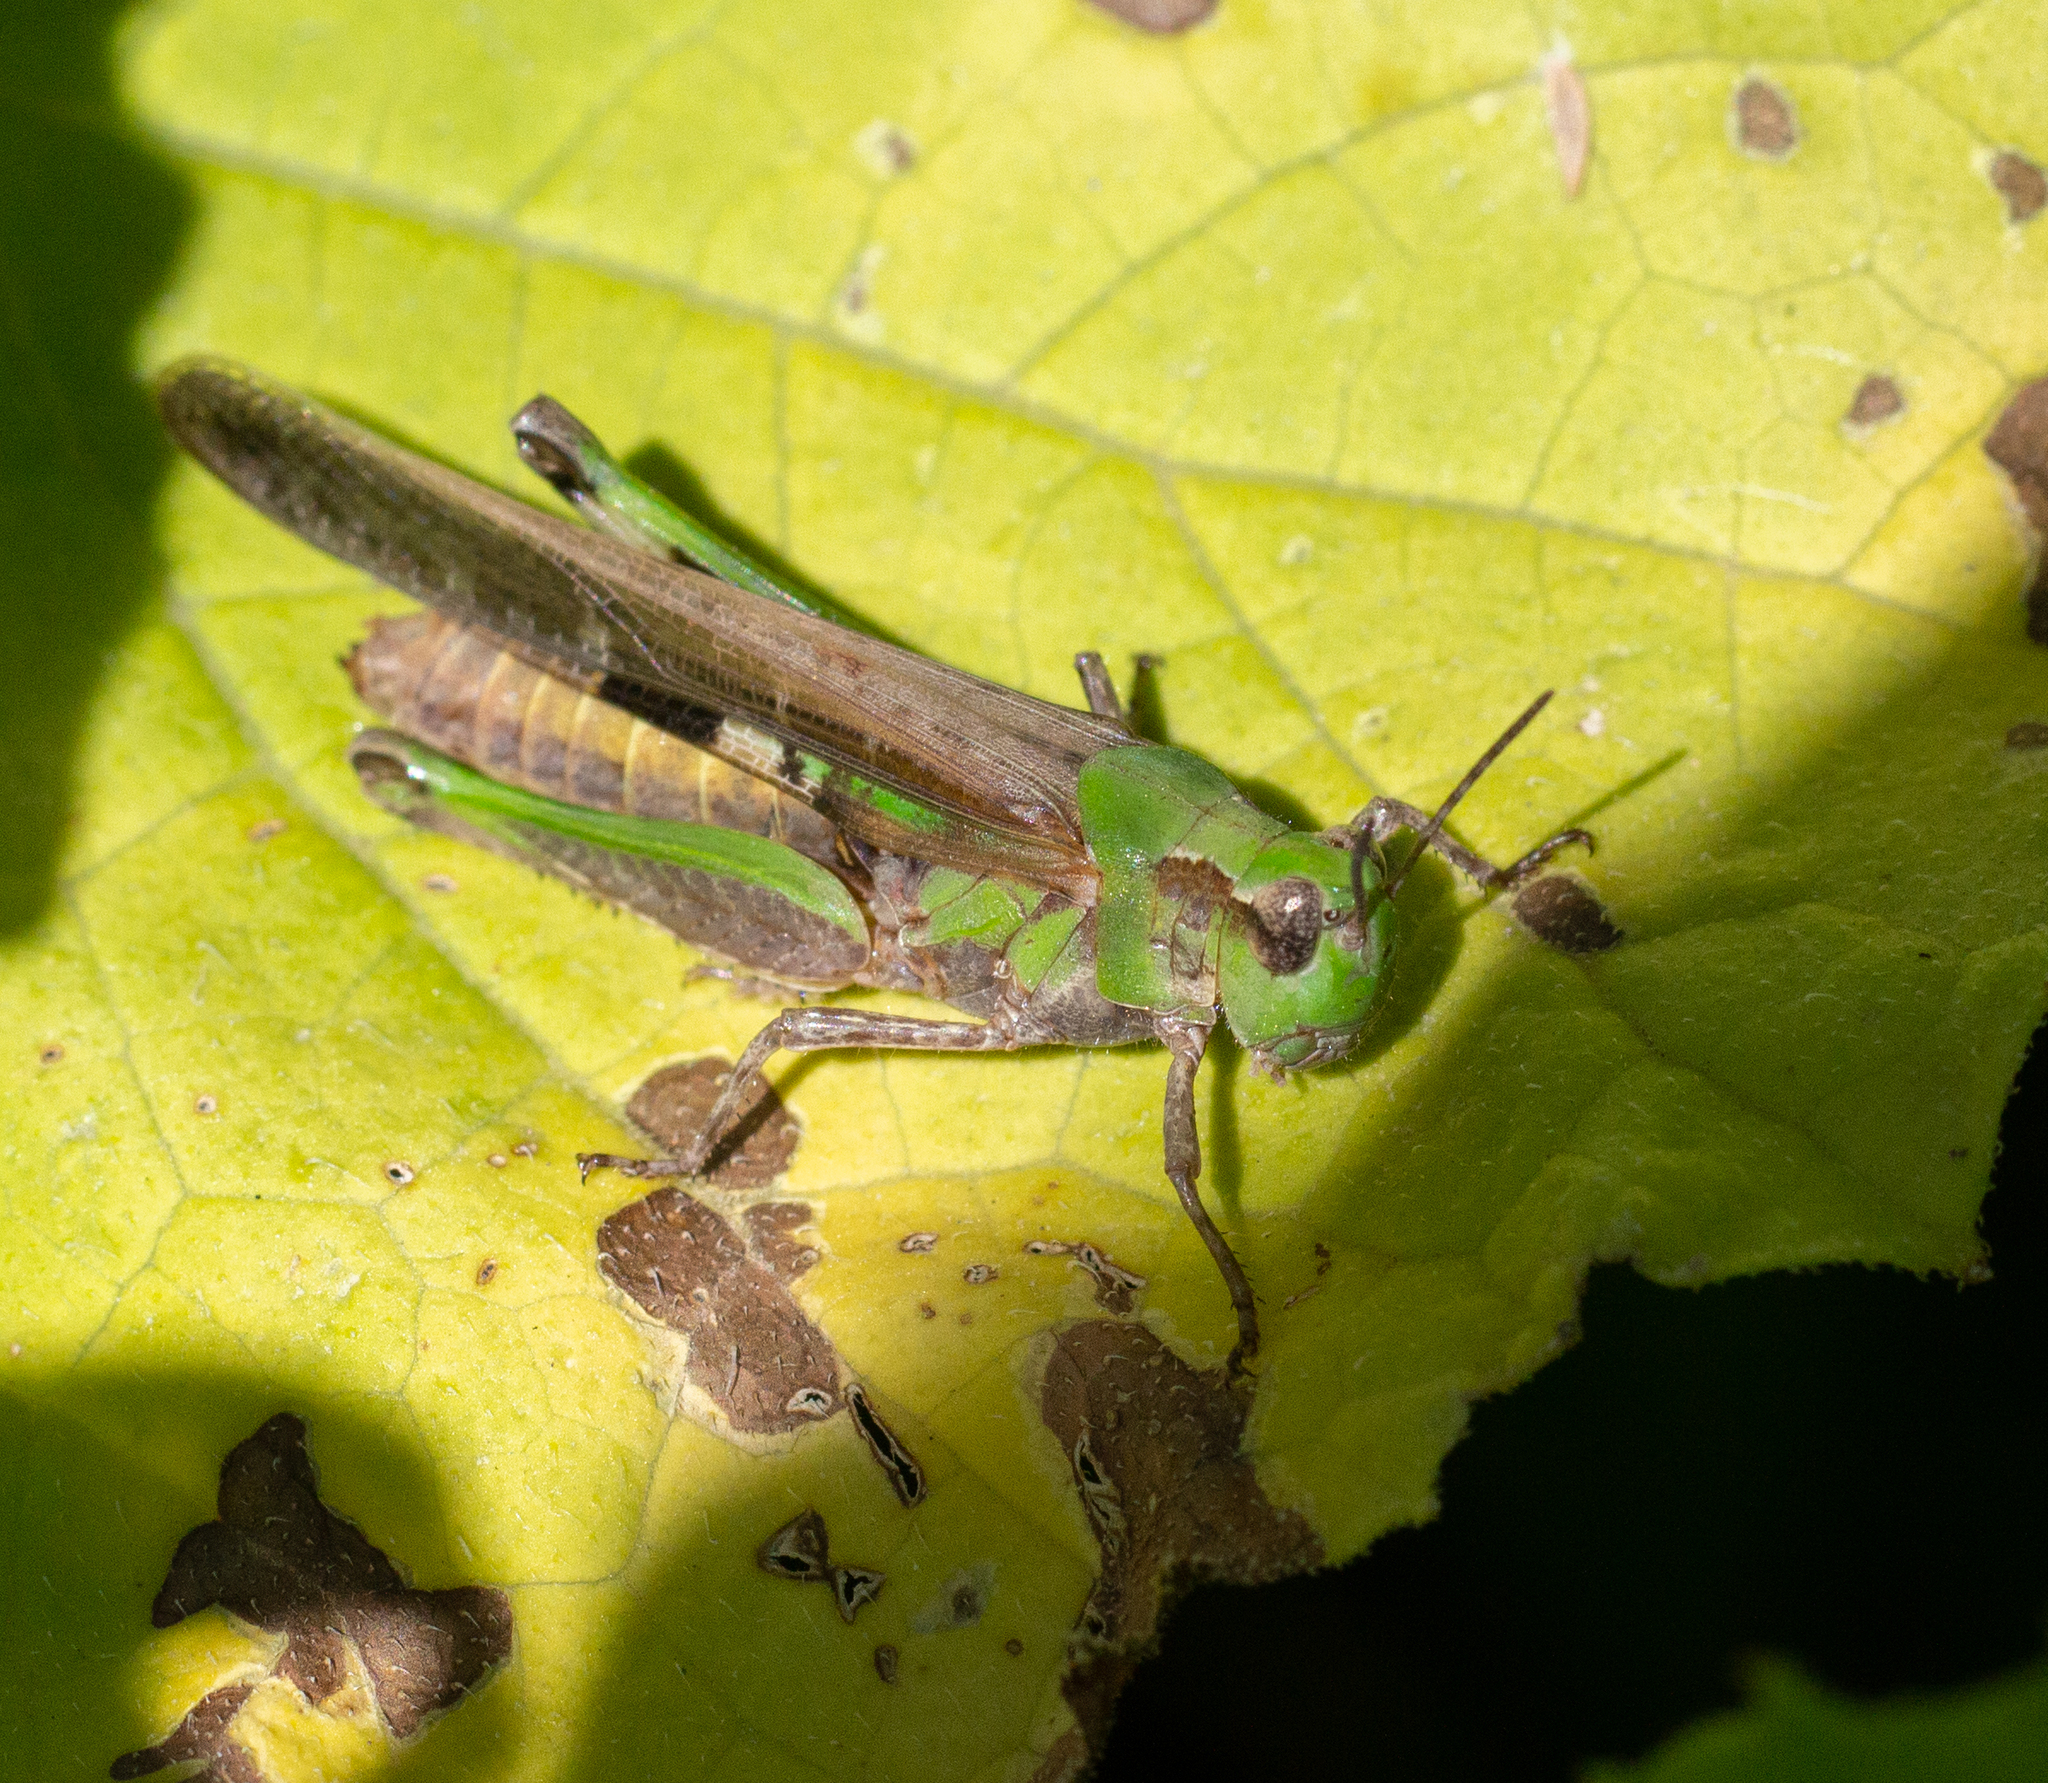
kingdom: Animalia
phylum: Arthropoda
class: Insecta
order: Orthoptera
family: Acrididae
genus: Aiolopus
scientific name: Aiolopus puissanti
